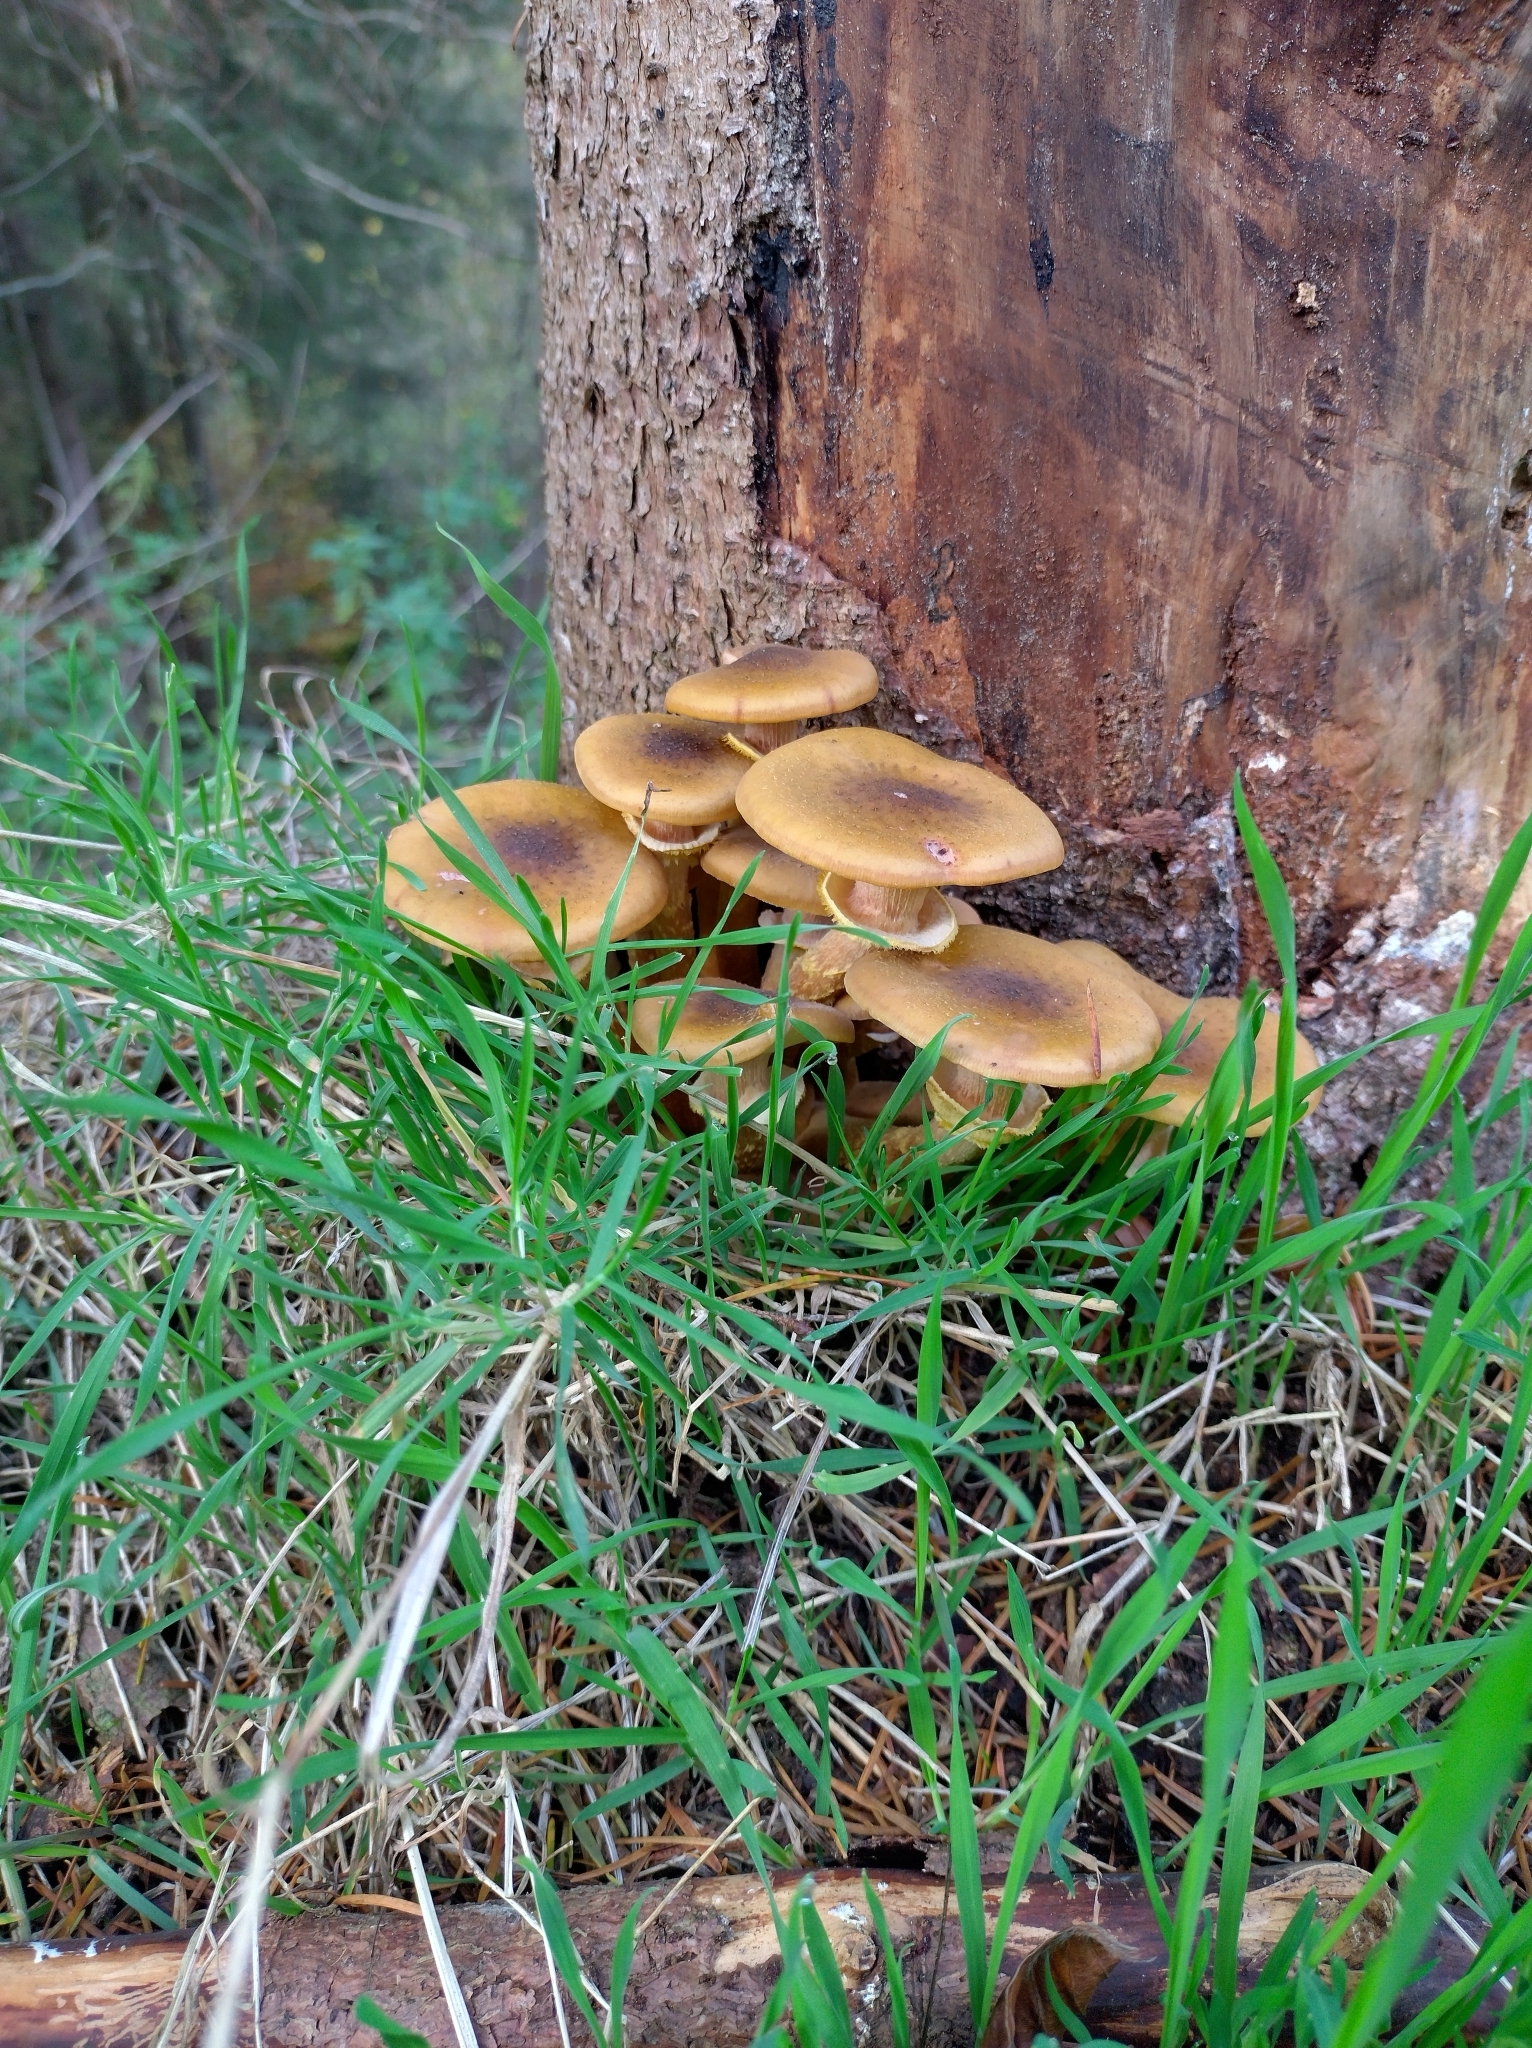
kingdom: Fungi
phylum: Basidiomycota
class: Agaricomycetes
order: Agaricales
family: Physalacriaceae
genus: Armillaria
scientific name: Armillaria mellea
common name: Honey fungus
